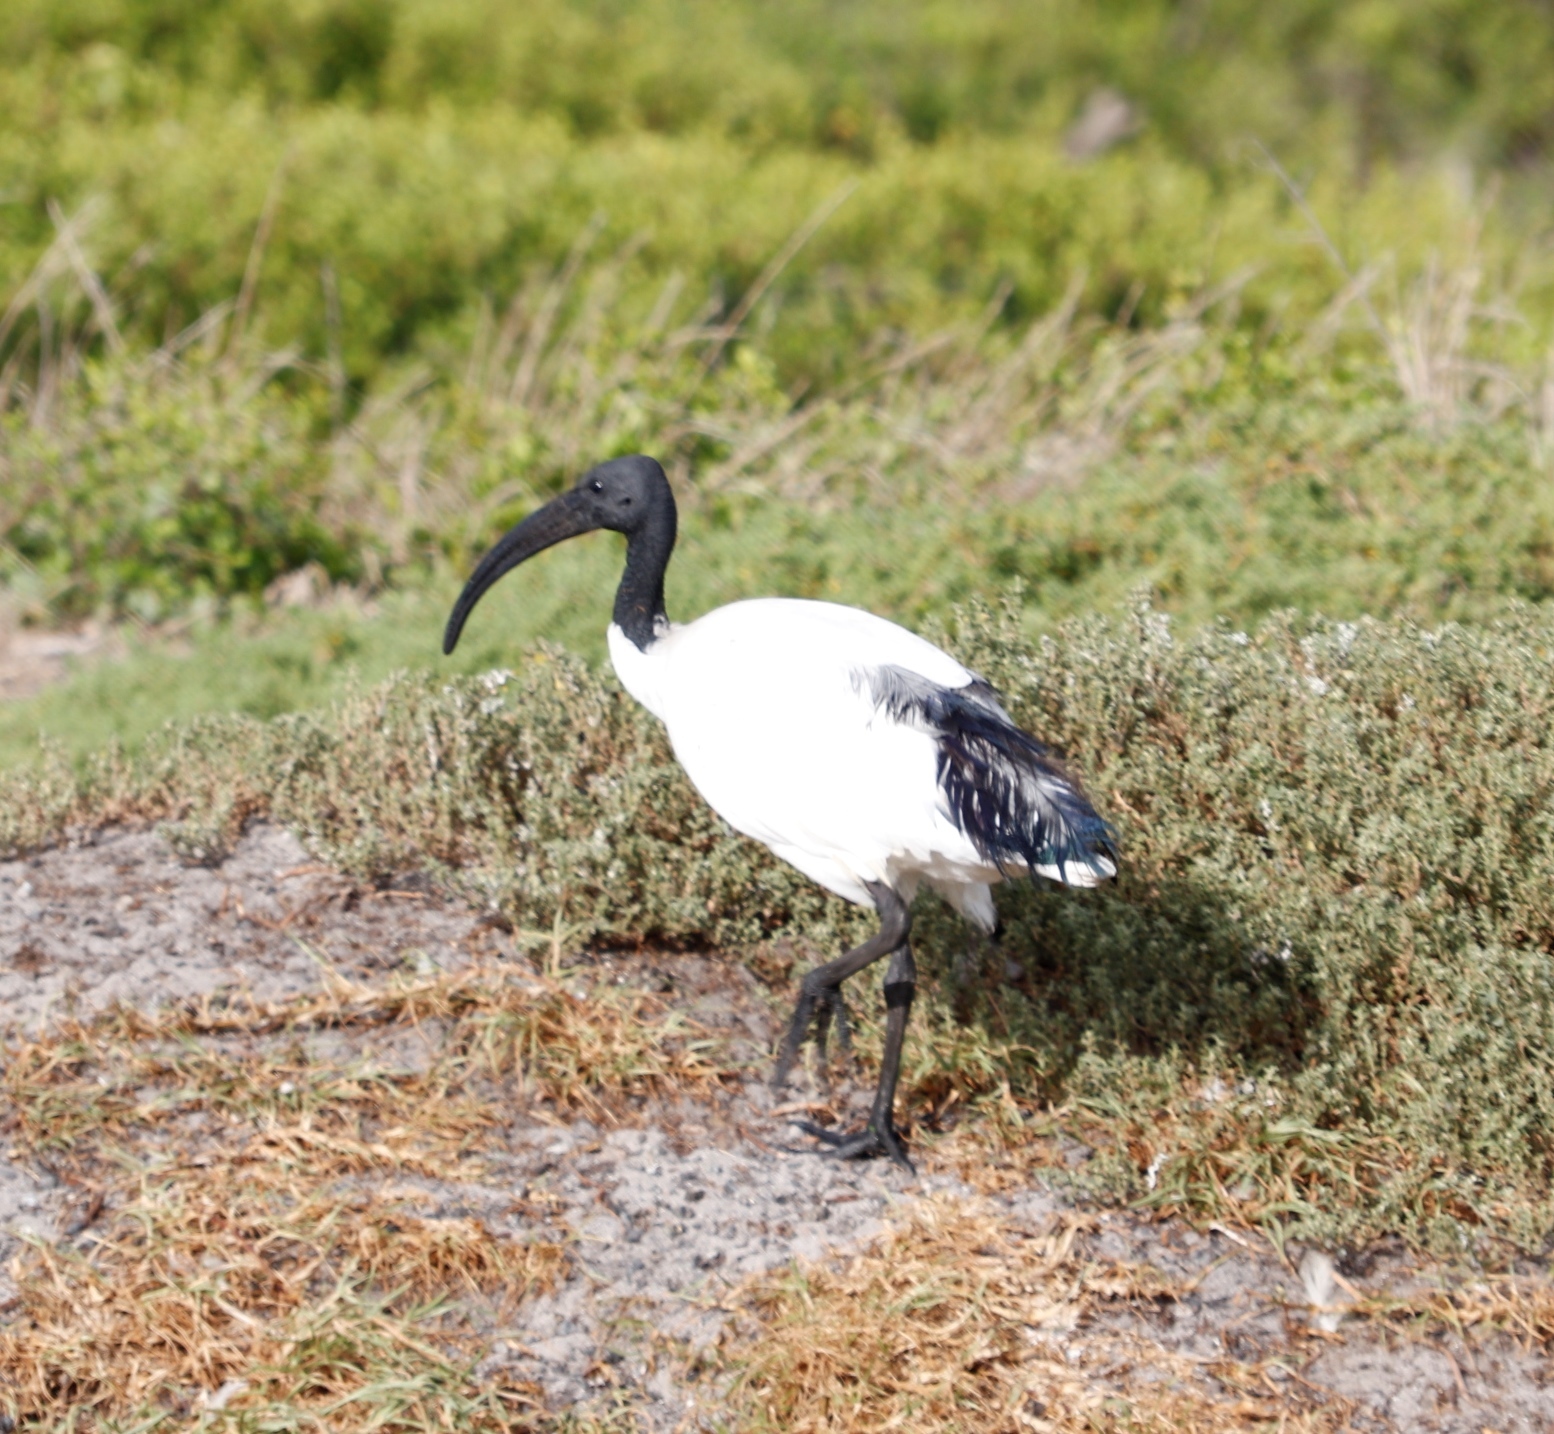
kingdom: Animalia
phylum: Chordata
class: Aves
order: Pelecaniformes
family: Threskiornithidae
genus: Threskiornis
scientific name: Threskiornis aethiopicus
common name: Sacred ibis
